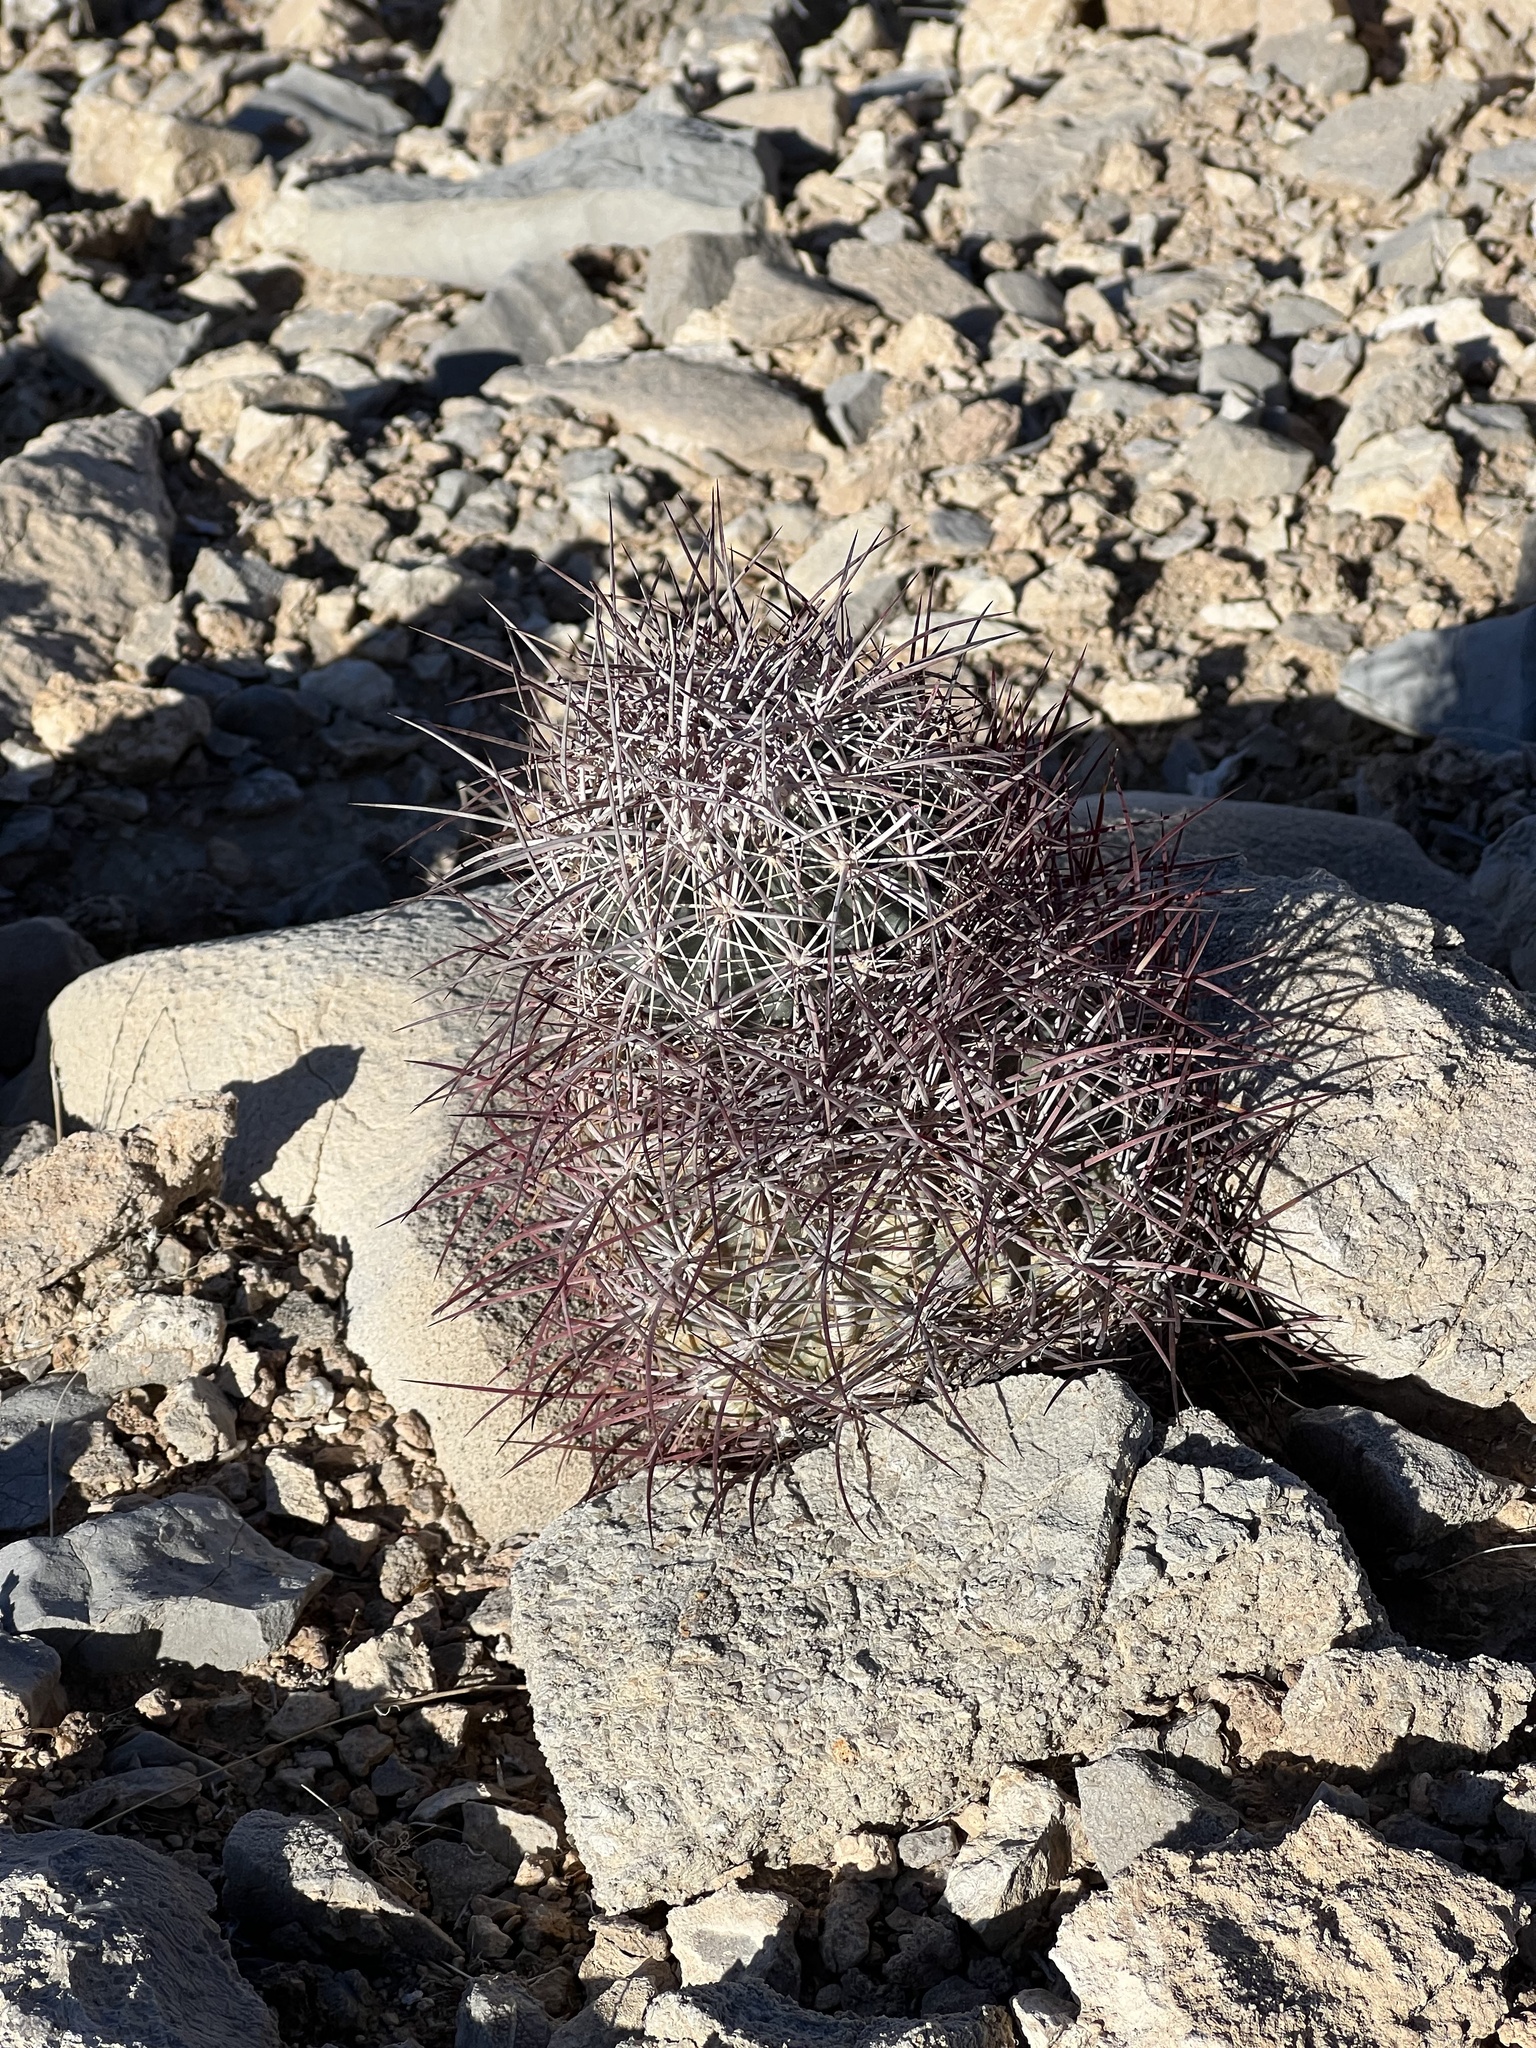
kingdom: Plantae
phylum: Tracheophyta
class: Magnoliopsida
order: Caryophyllales
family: Cactaceae
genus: Sclerocactus
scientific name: Sclerocactus johnsonii
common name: Eight-spine fishhook cactus
